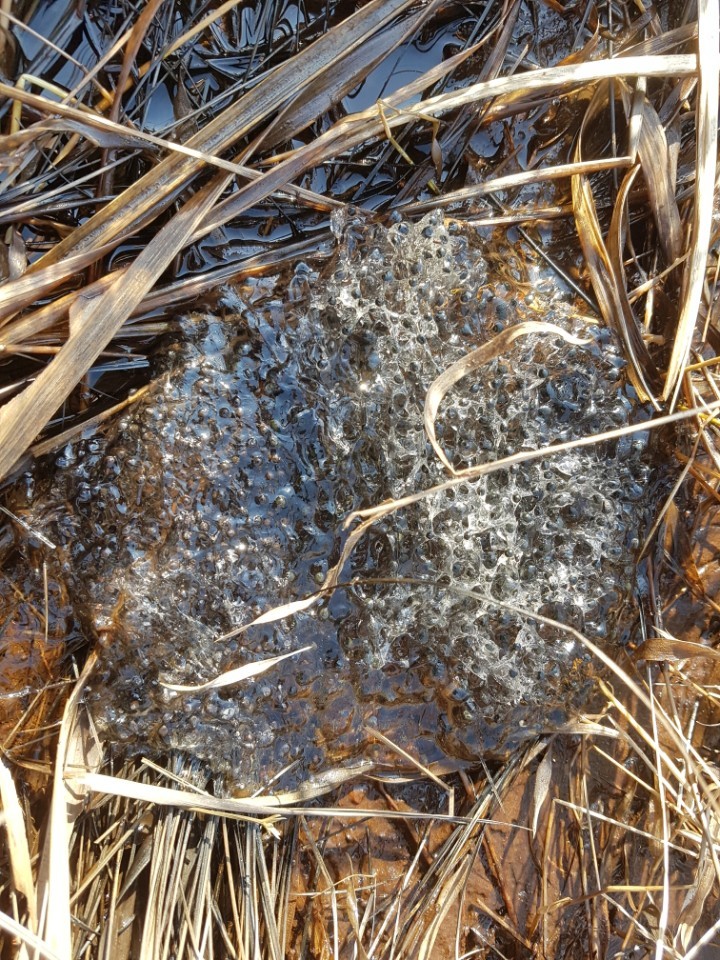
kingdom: Animalia
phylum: Chordata
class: Amphibia
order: Anura
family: Ranidae
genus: Rana
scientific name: Rana uenoi
